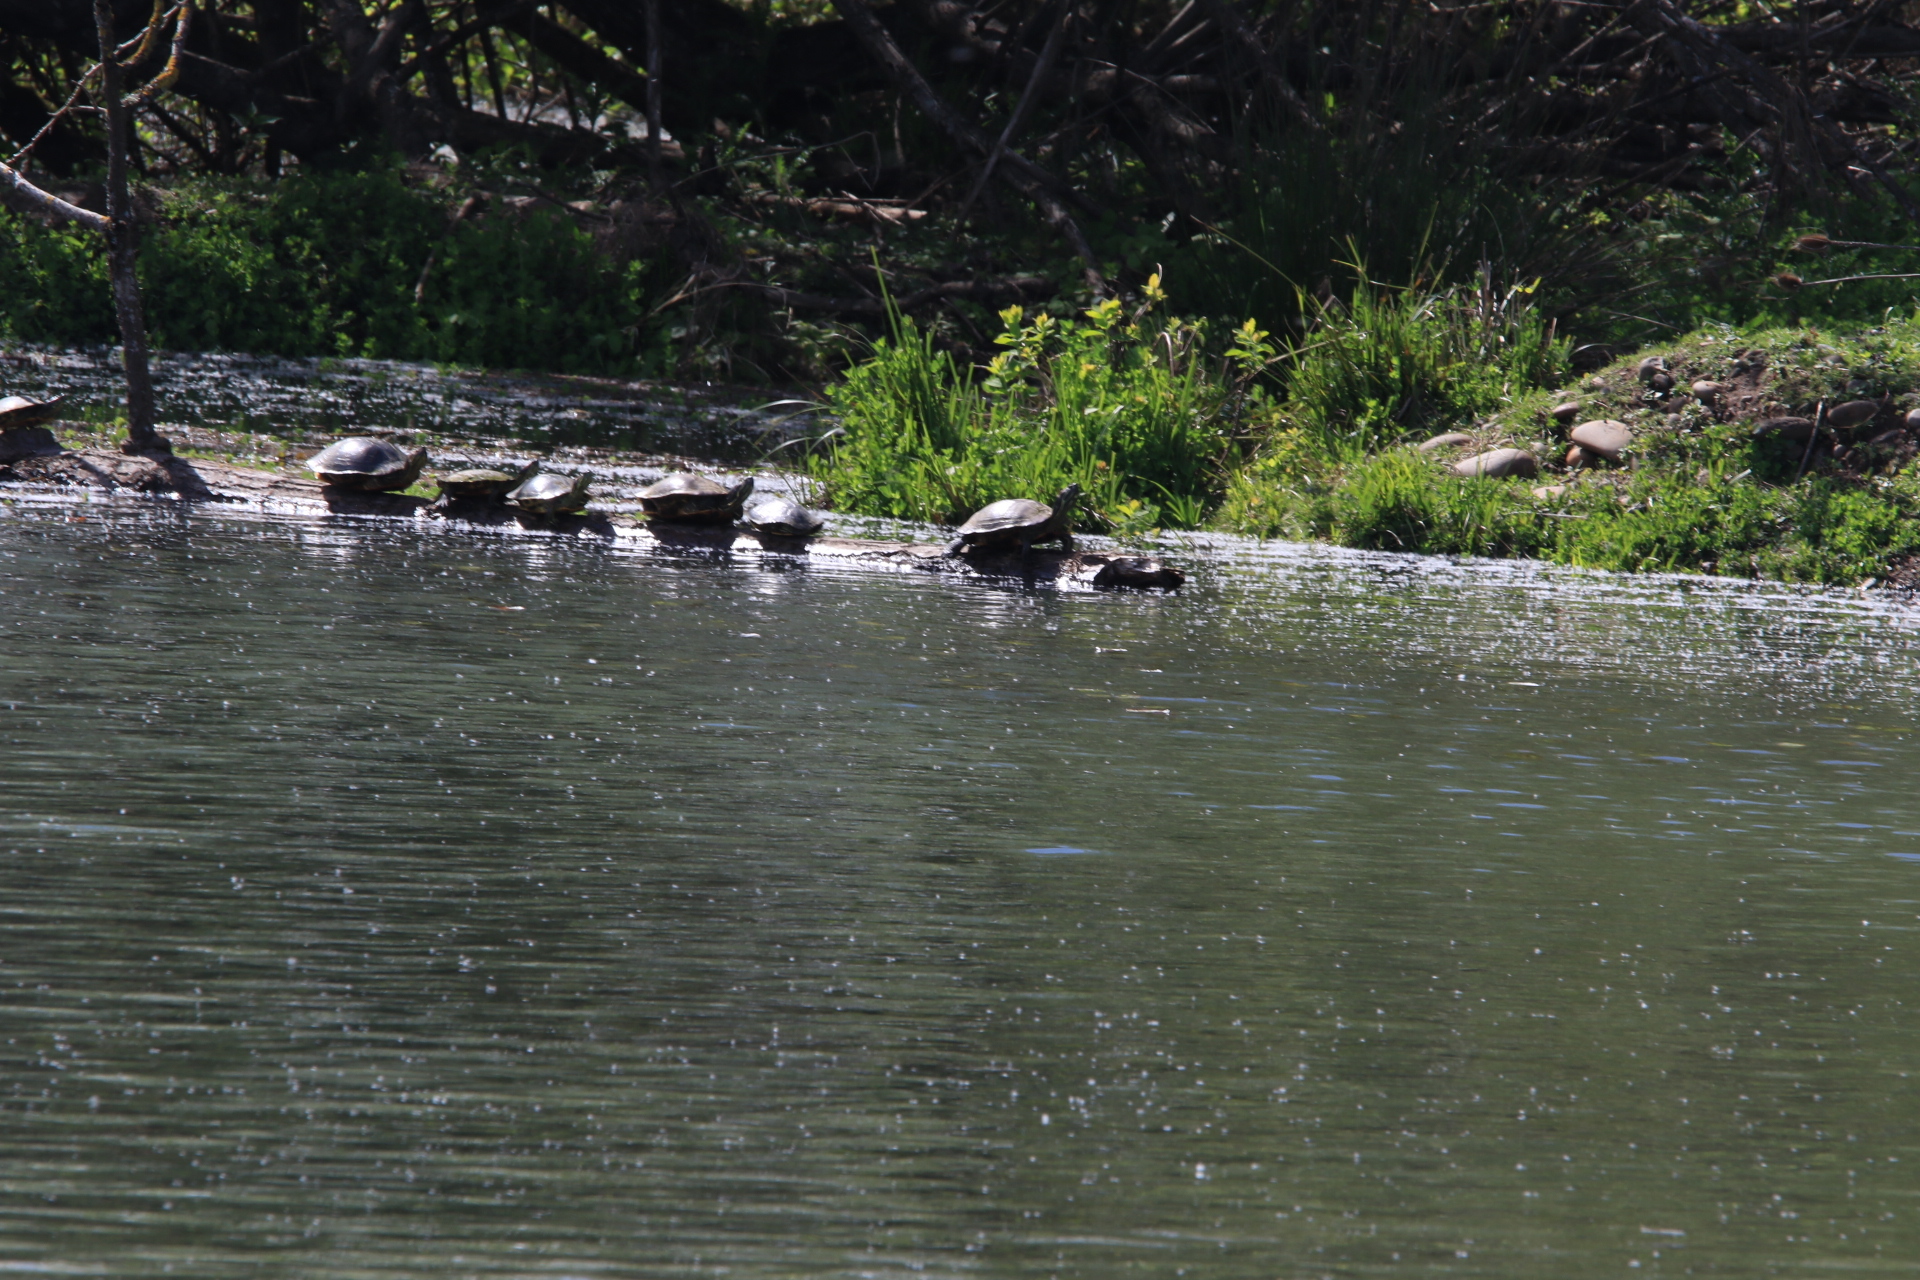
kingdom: Animalia
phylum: Chordata
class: Testudines
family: Emydidae
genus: Trachemys
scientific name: Trachemys scripta
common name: Slider
